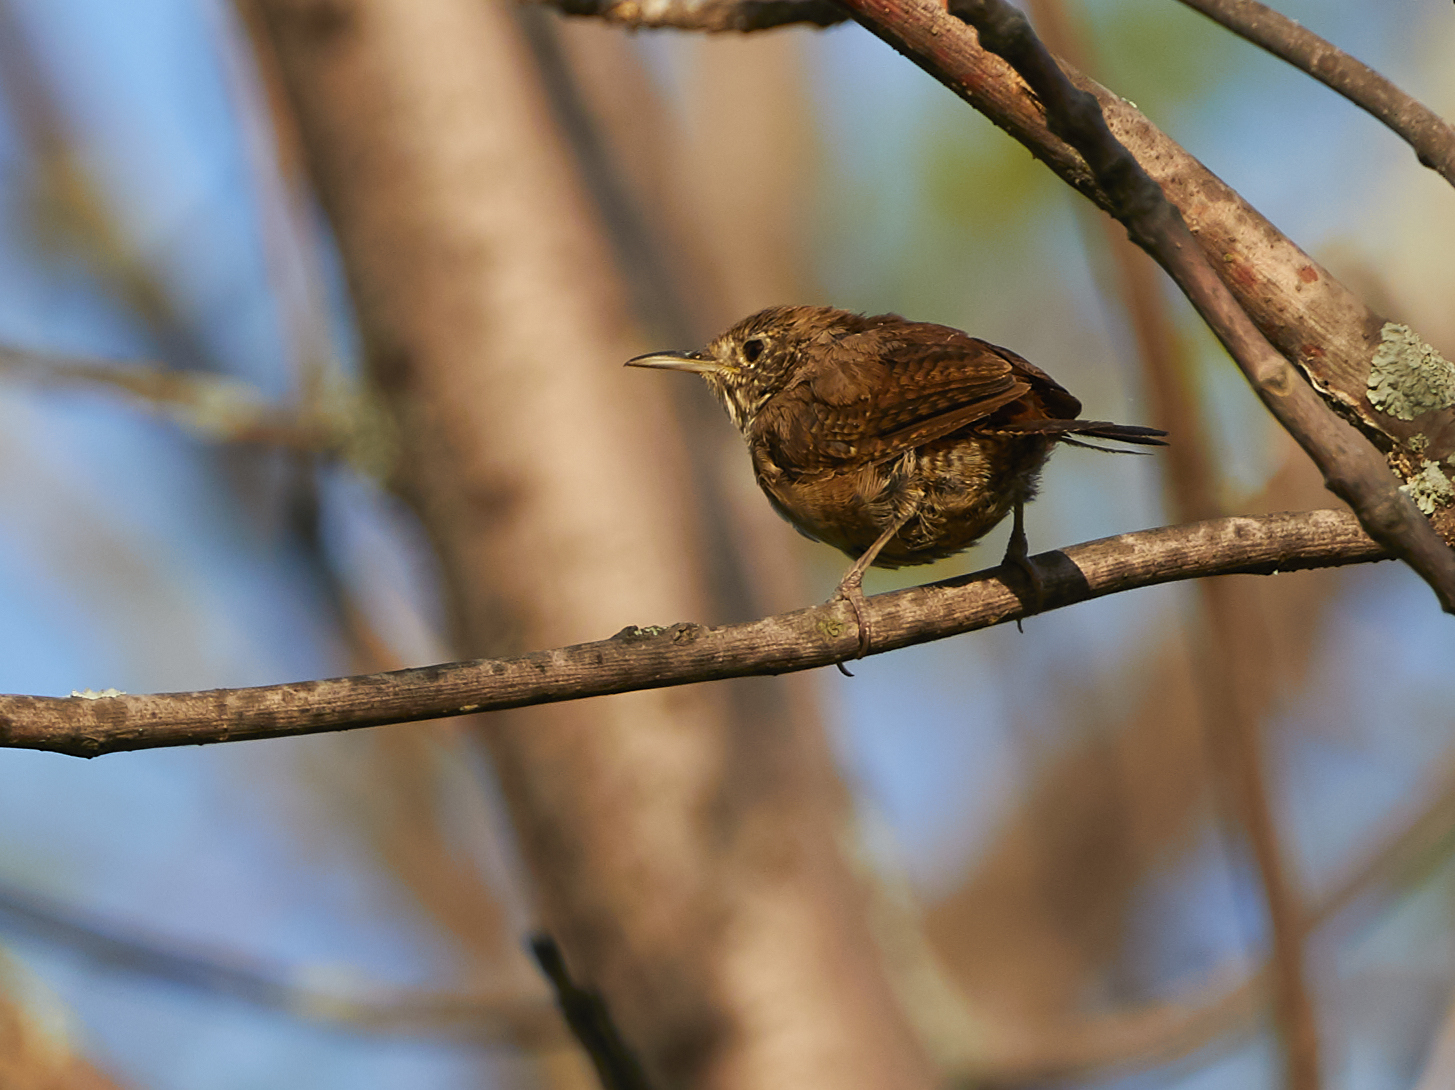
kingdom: Animalia
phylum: Chordata
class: Aves
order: Passeriformes
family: Troglodytidae
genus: Troglodytes
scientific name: Troglodytes aedon
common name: House wren
